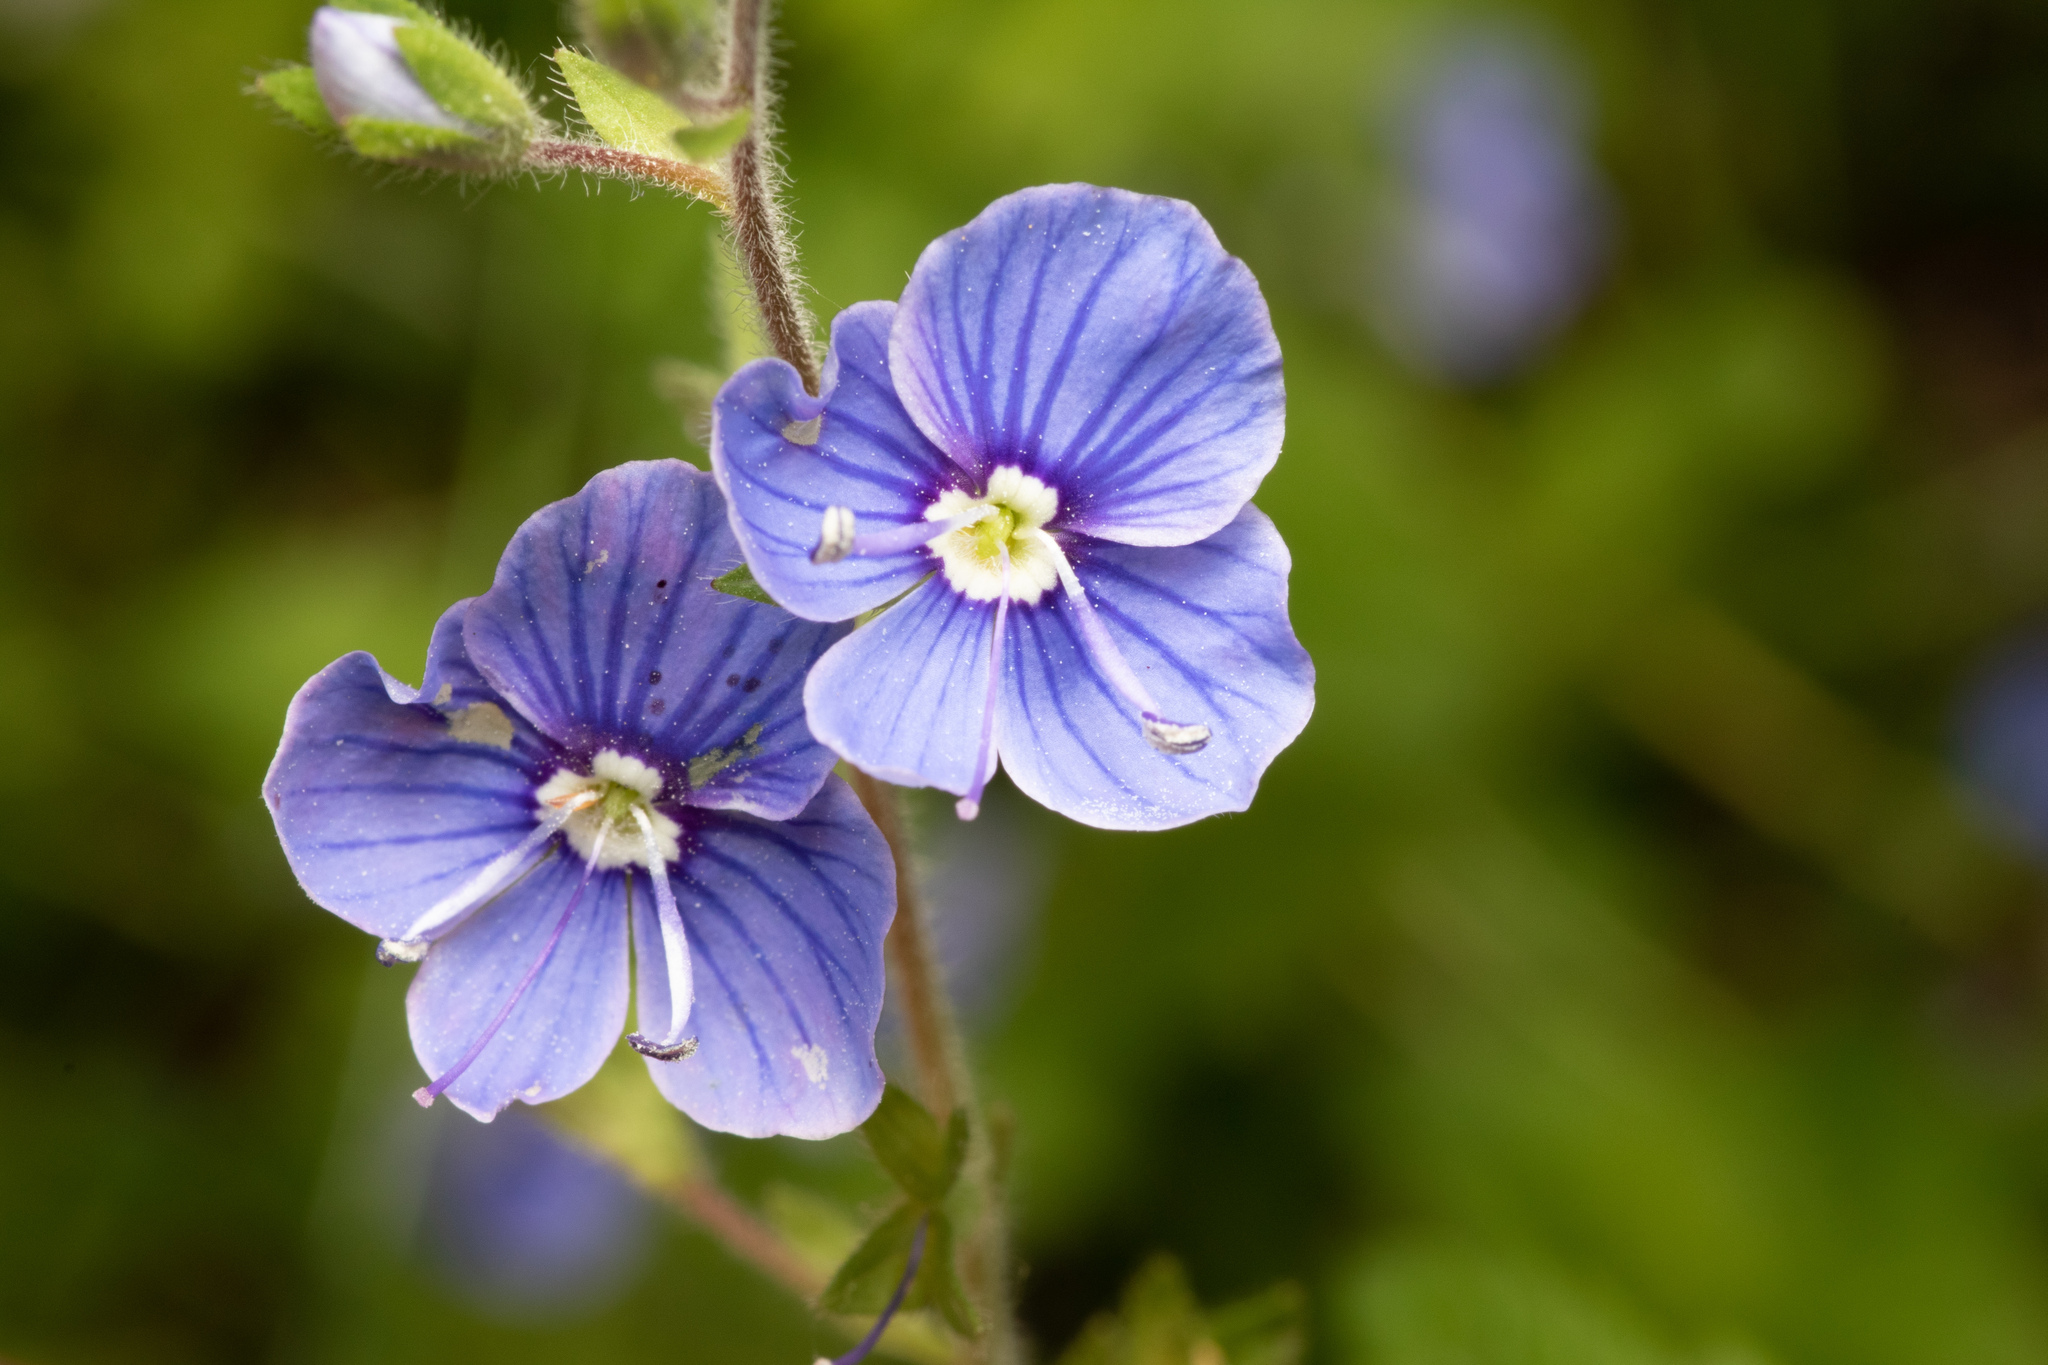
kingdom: Plantae
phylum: Tracheophyta
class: Magnoliopsida
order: Lamiales
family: Plantaginaceae
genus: Veronica
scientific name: Veronica chamaedrys
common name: Germander speedwell
